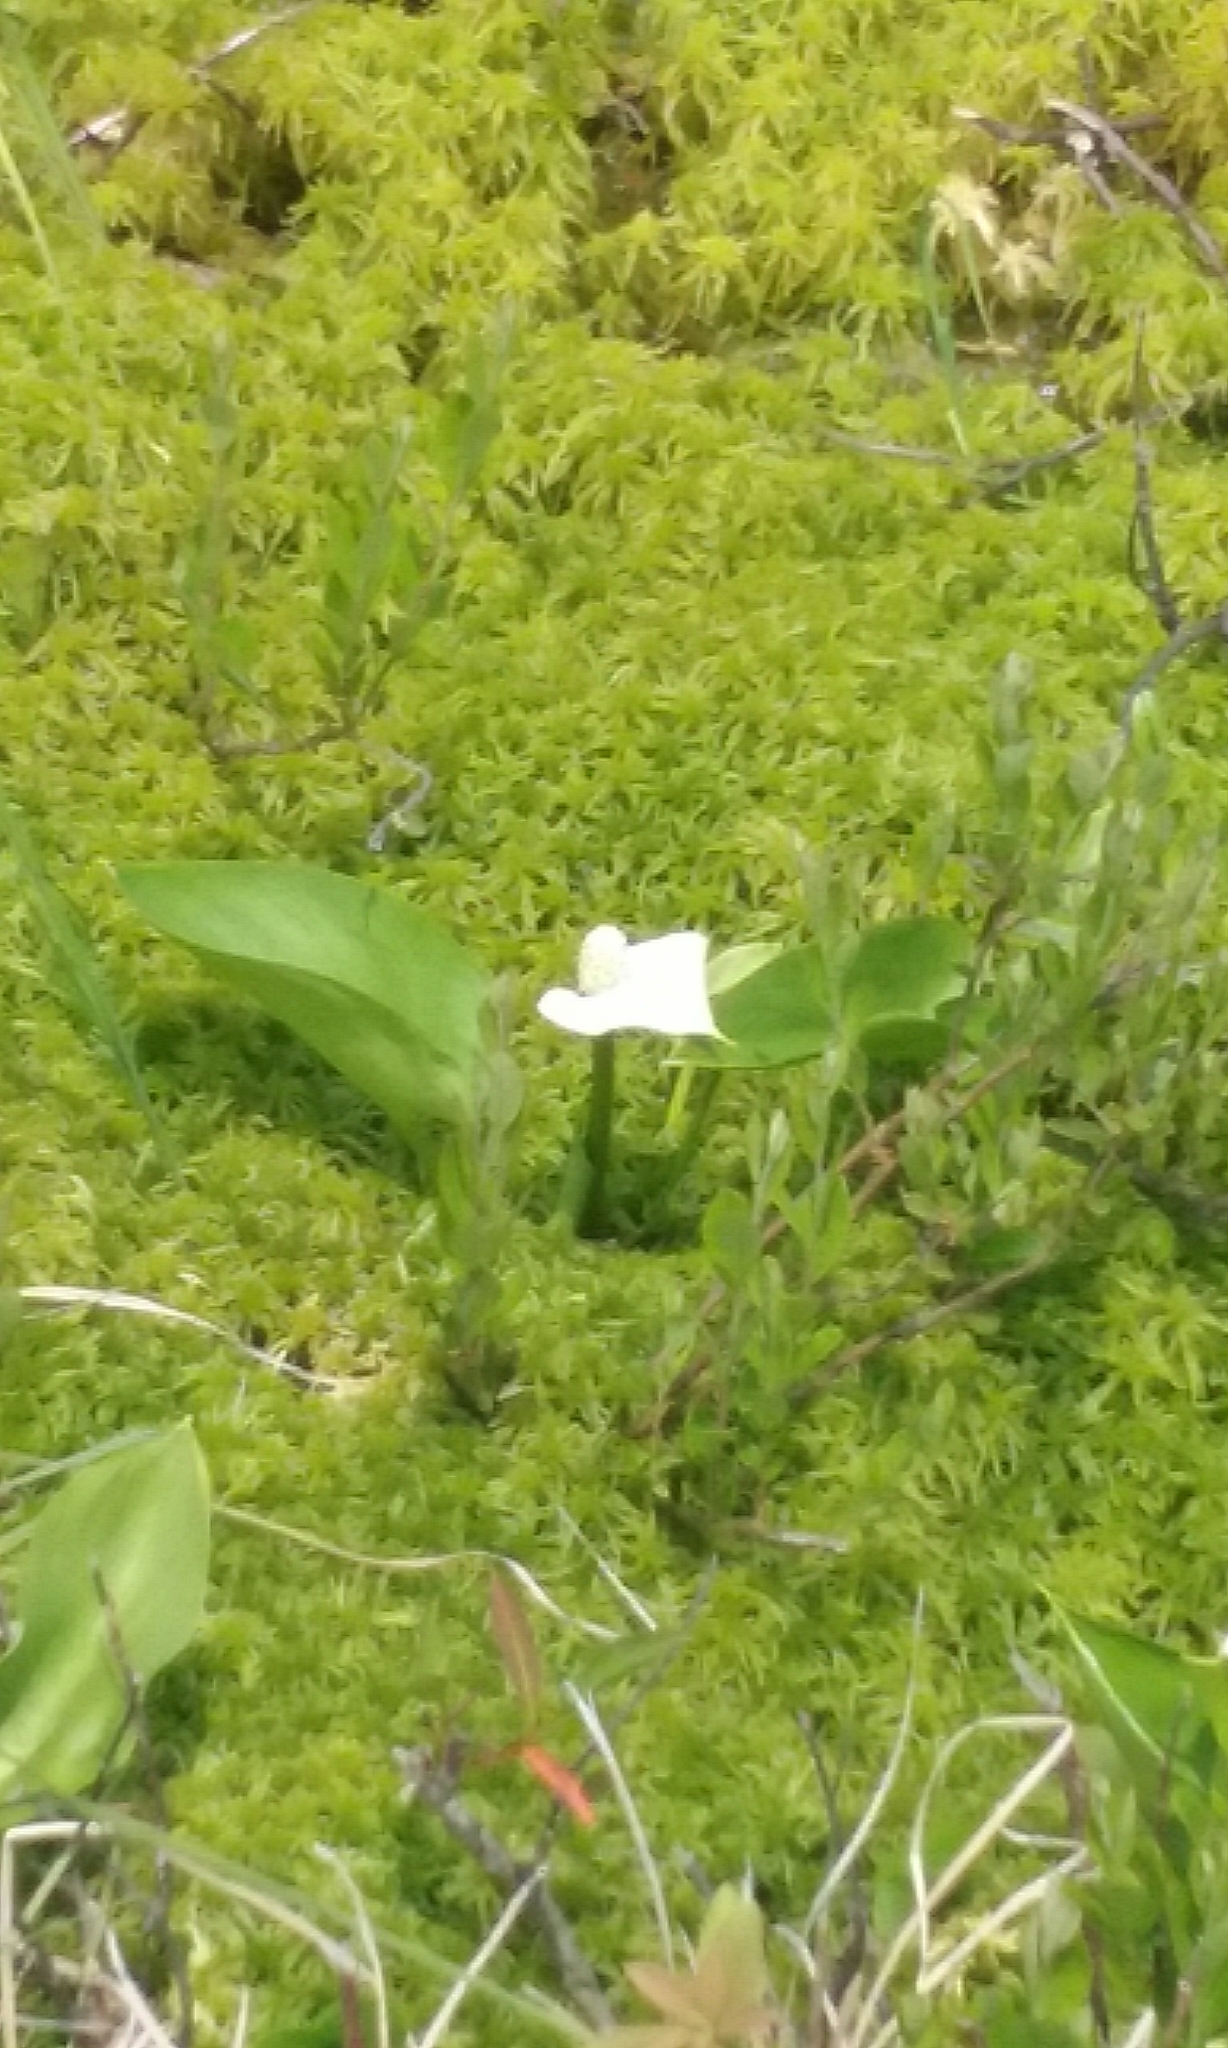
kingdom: Plantae
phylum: Tracheophyta
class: Liliopsida
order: Alismatales
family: Araceae
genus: Calla
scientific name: Calla palustris
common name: Bog arum
